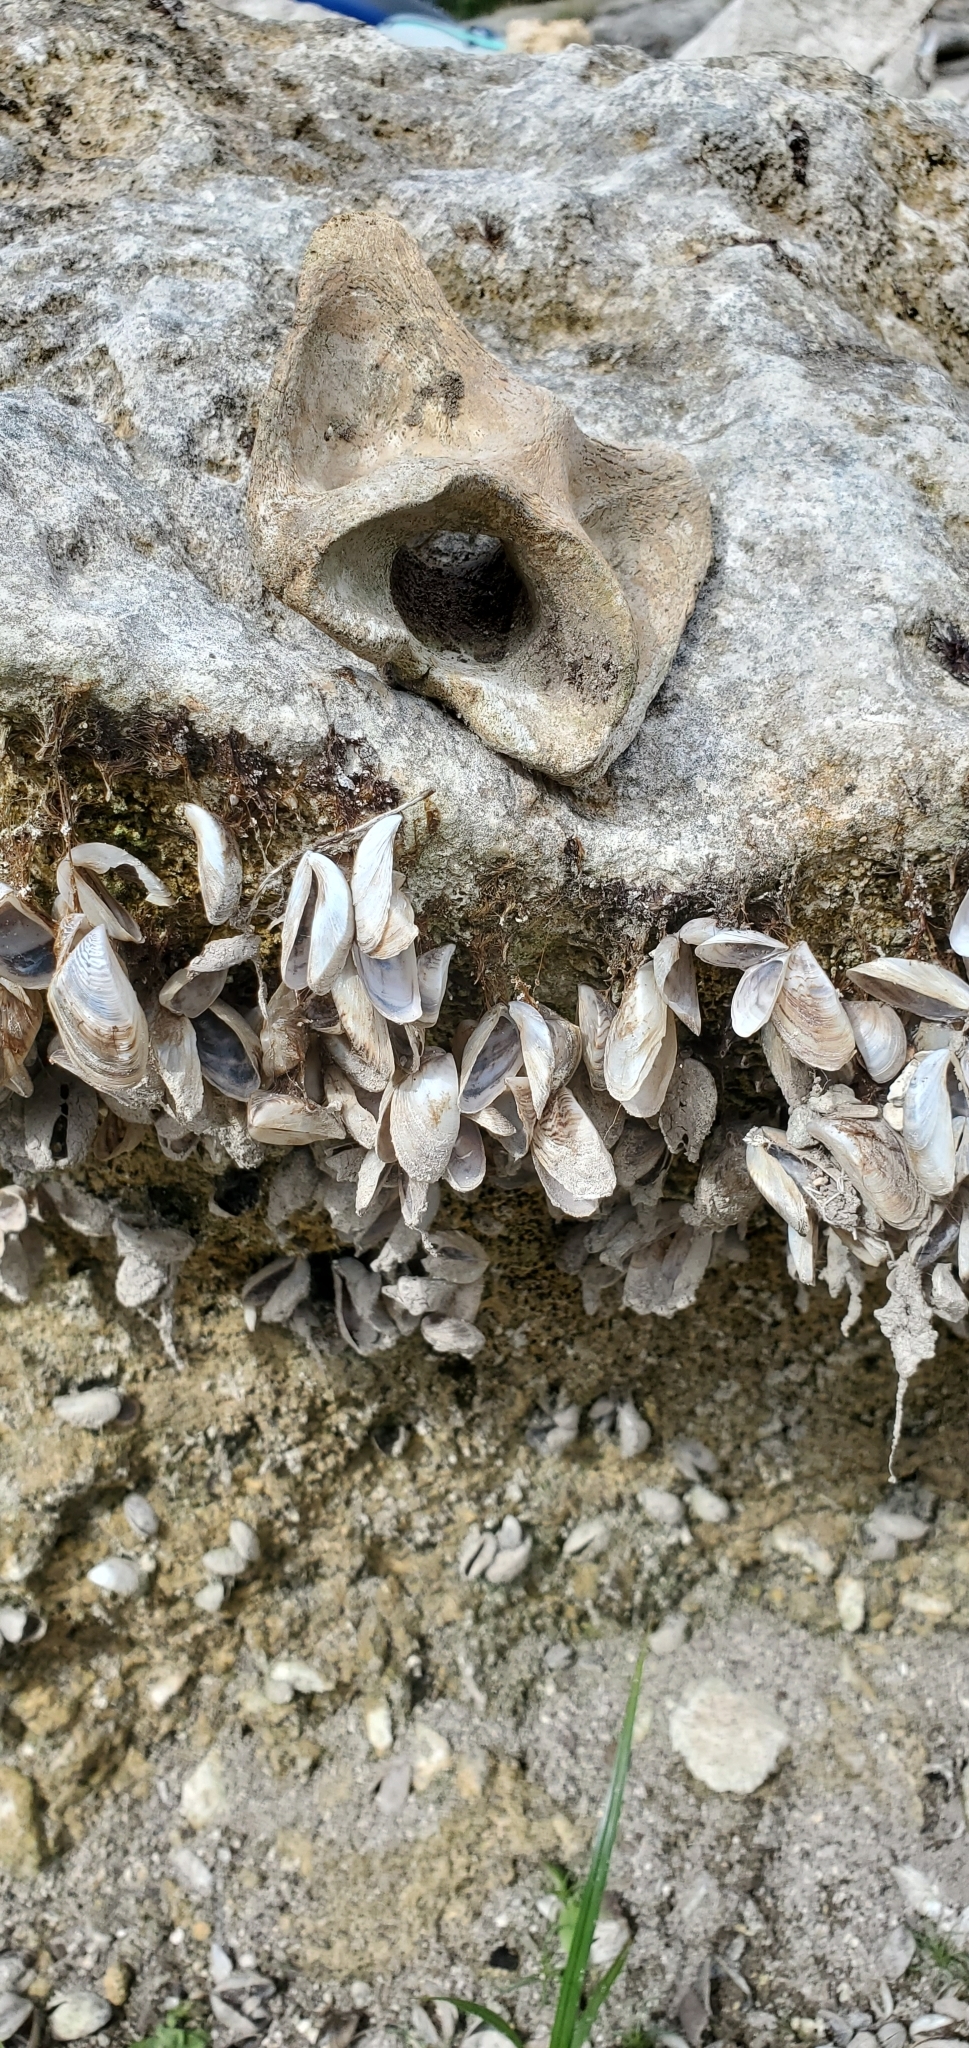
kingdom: Animalia
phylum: Mollusca
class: Bivalvia
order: Myida
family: Dreissenidae
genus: Dreissena
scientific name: Dreissena polymorpha
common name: Zebra mussel
